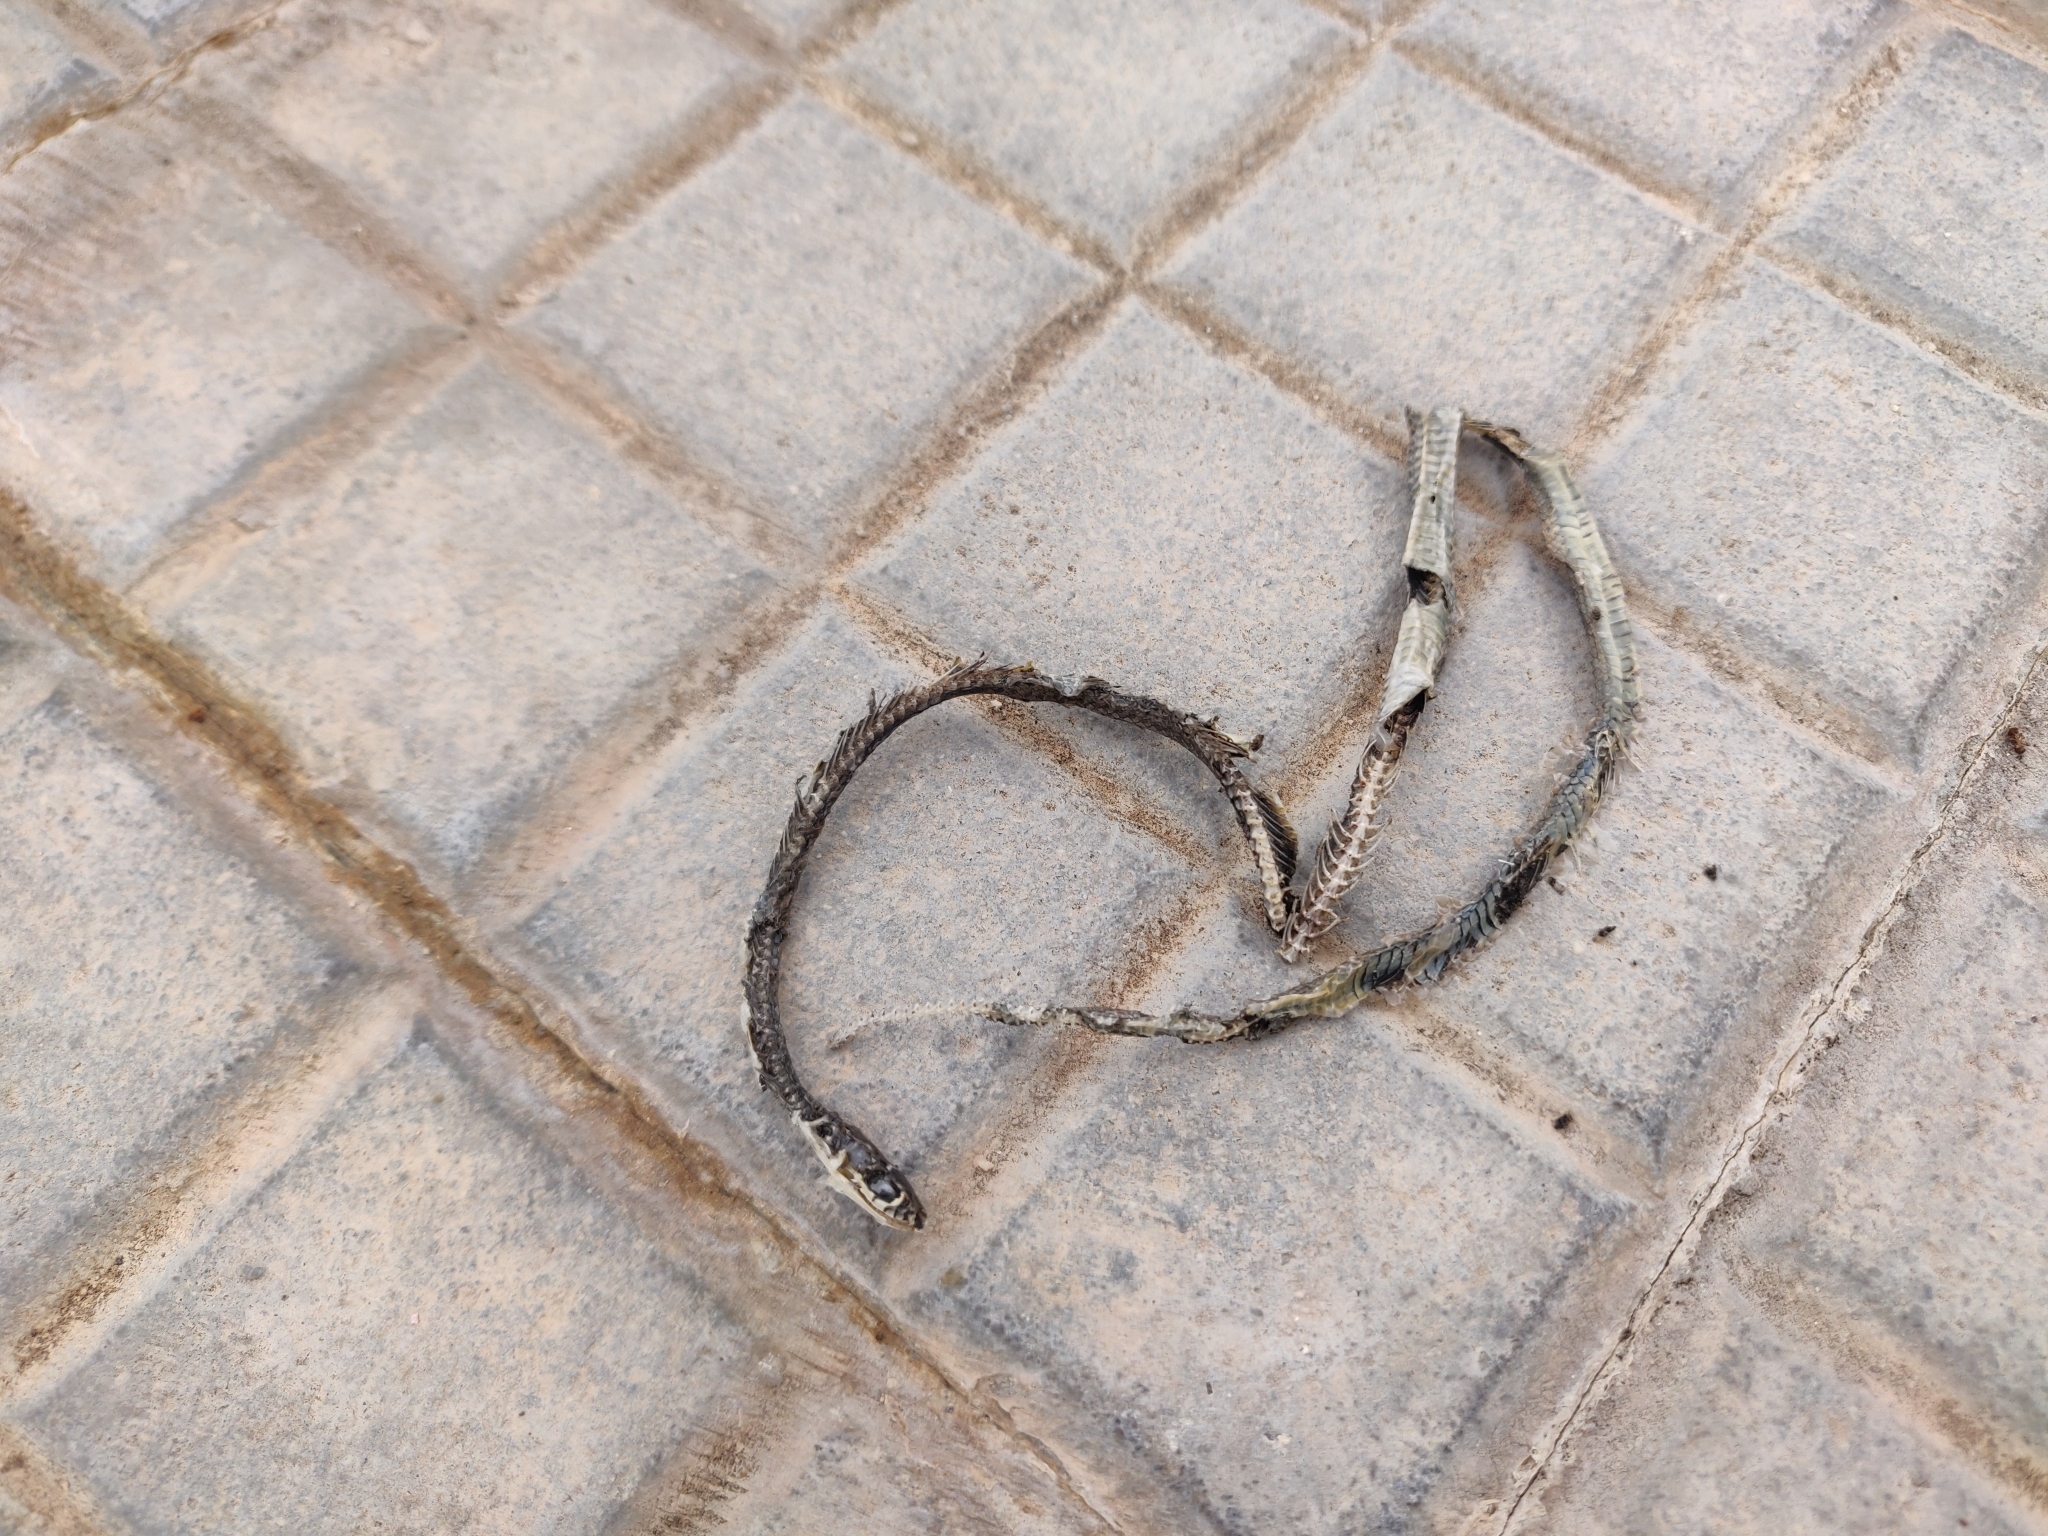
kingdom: Animalia
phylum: Chordata
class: Squamata
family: Colubridae
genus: Hierophis
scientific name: Hierophis viridiflavus
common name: Green whip snake
